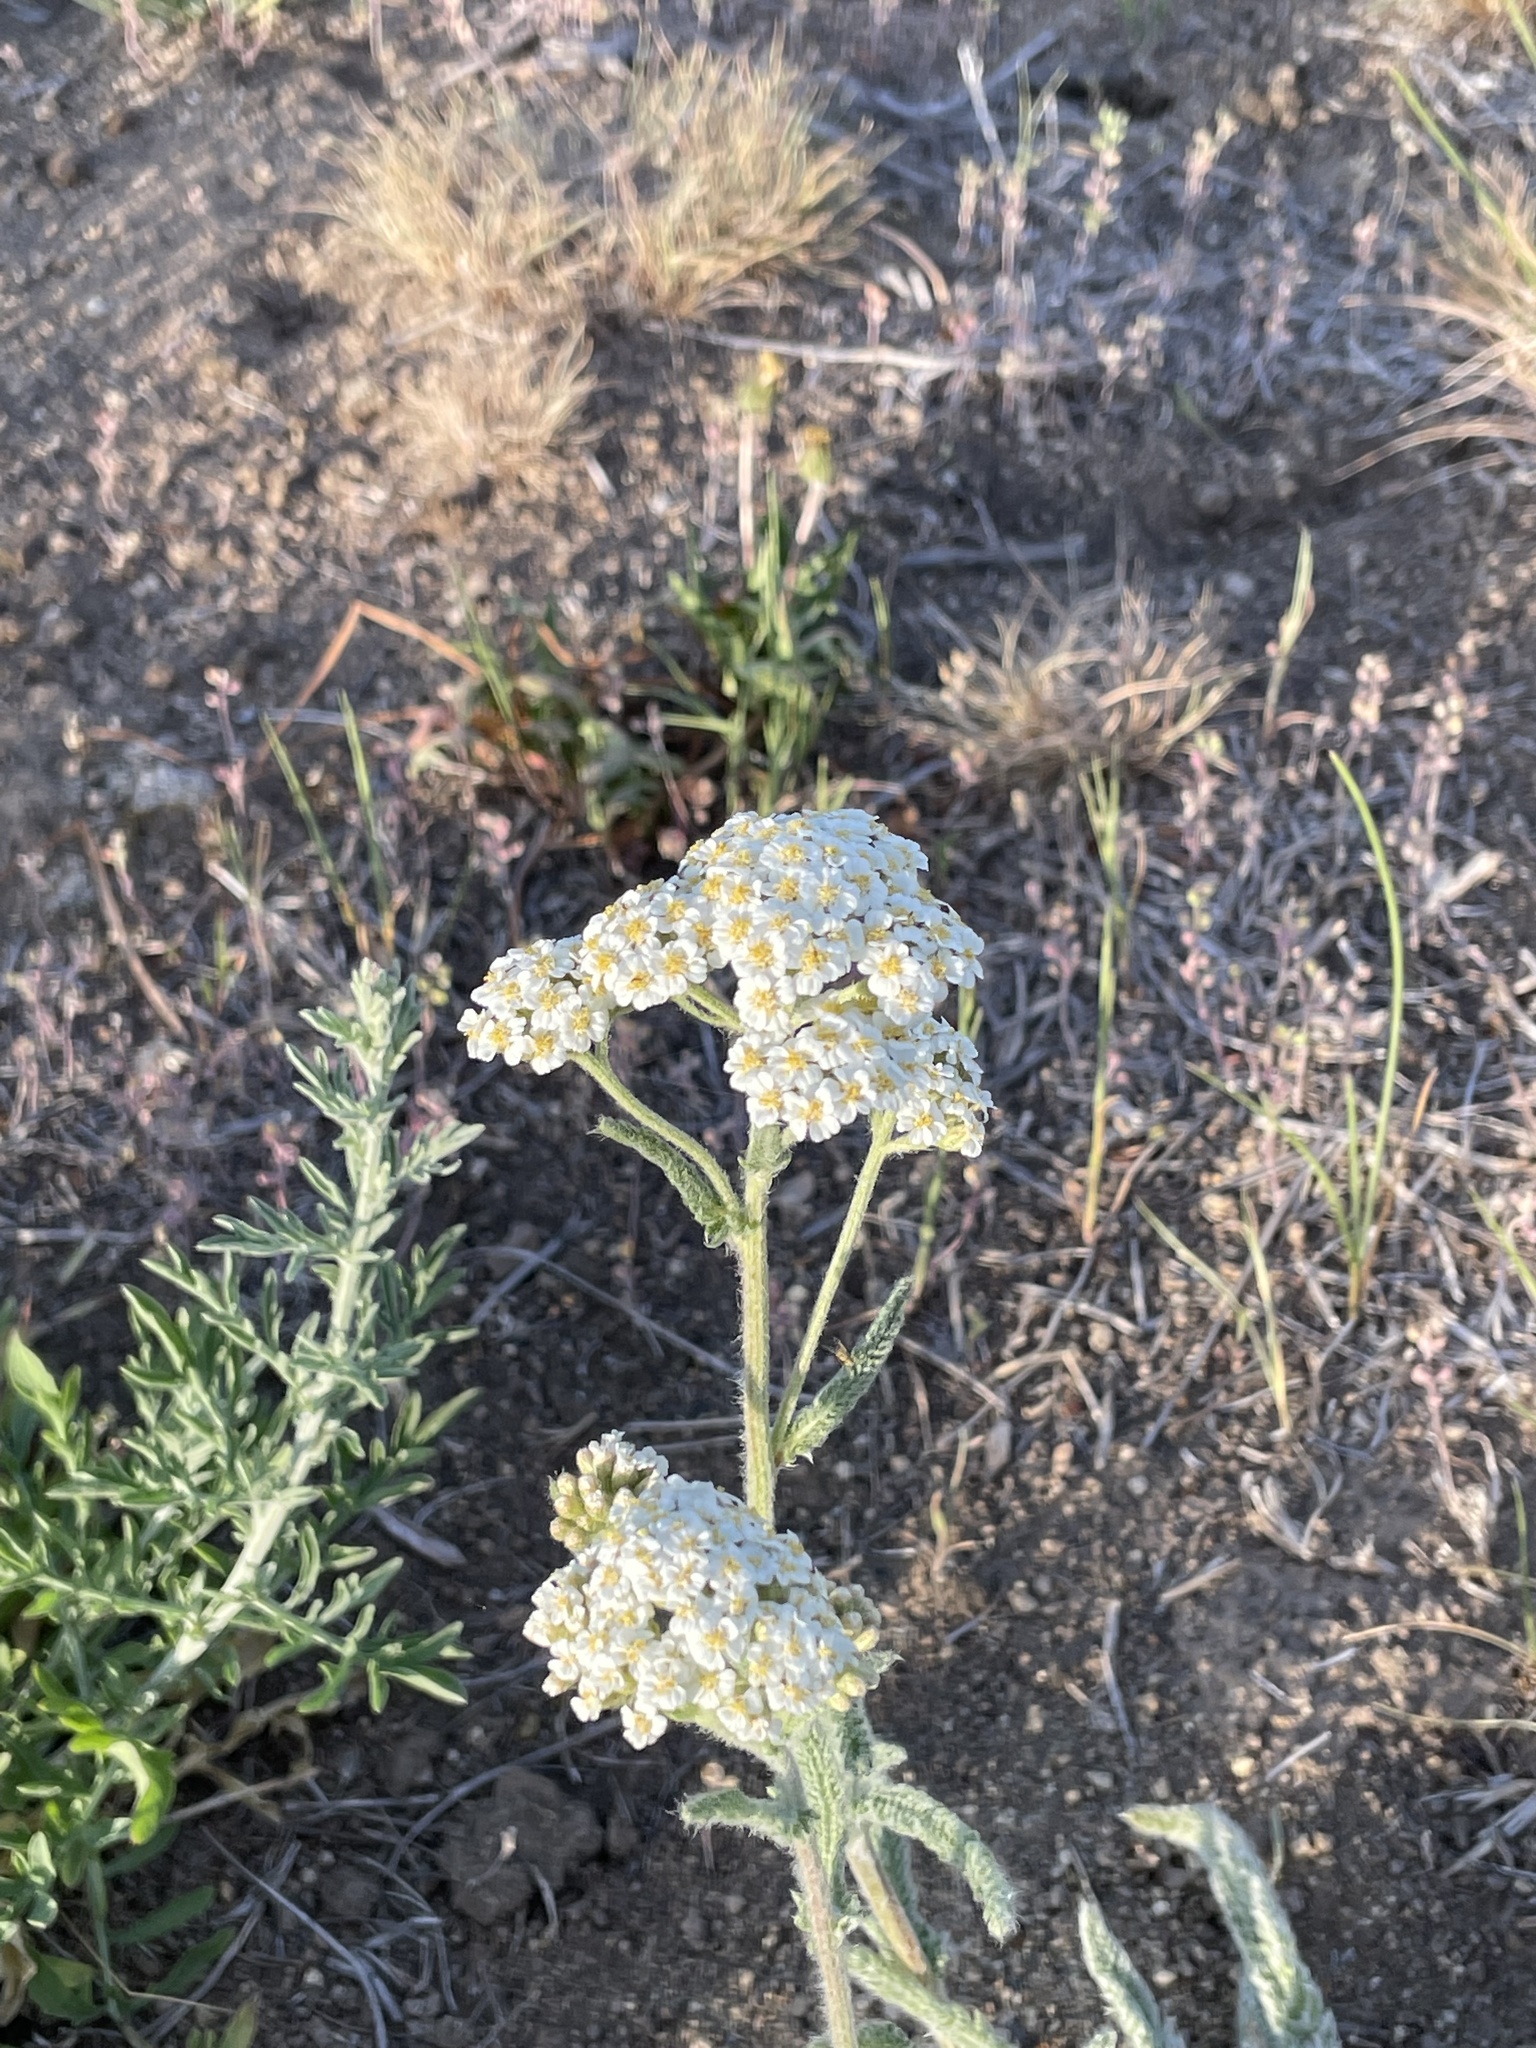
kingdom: Plantae
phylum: Tracheophyta
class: Magnoliopsida
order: Asterales
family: Asteraceae
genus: Achillea
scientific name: Achillea millefolium
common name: Yarrow
